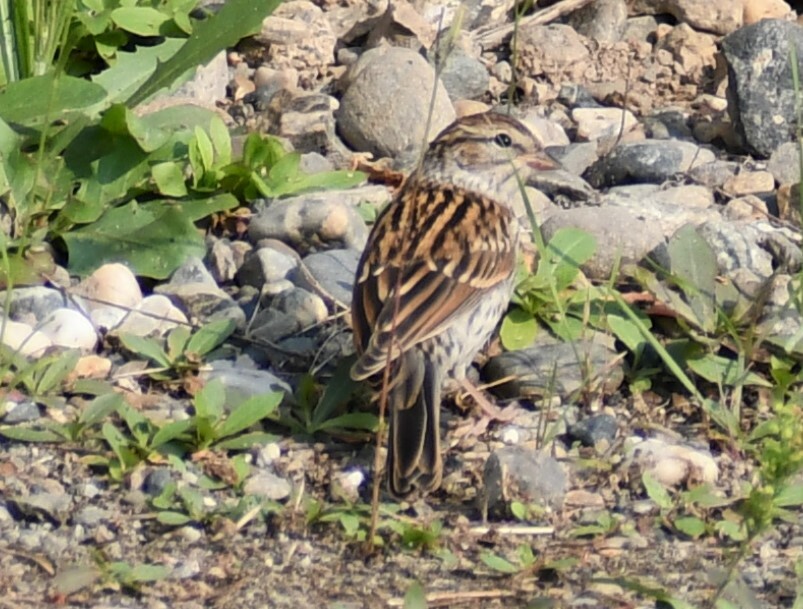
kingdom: Animalia
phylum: Chordata
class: Aves
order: Passeriformes
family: Passerellidae
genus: Spizella
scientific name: Spizella passerina
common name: Chipping sparrow
